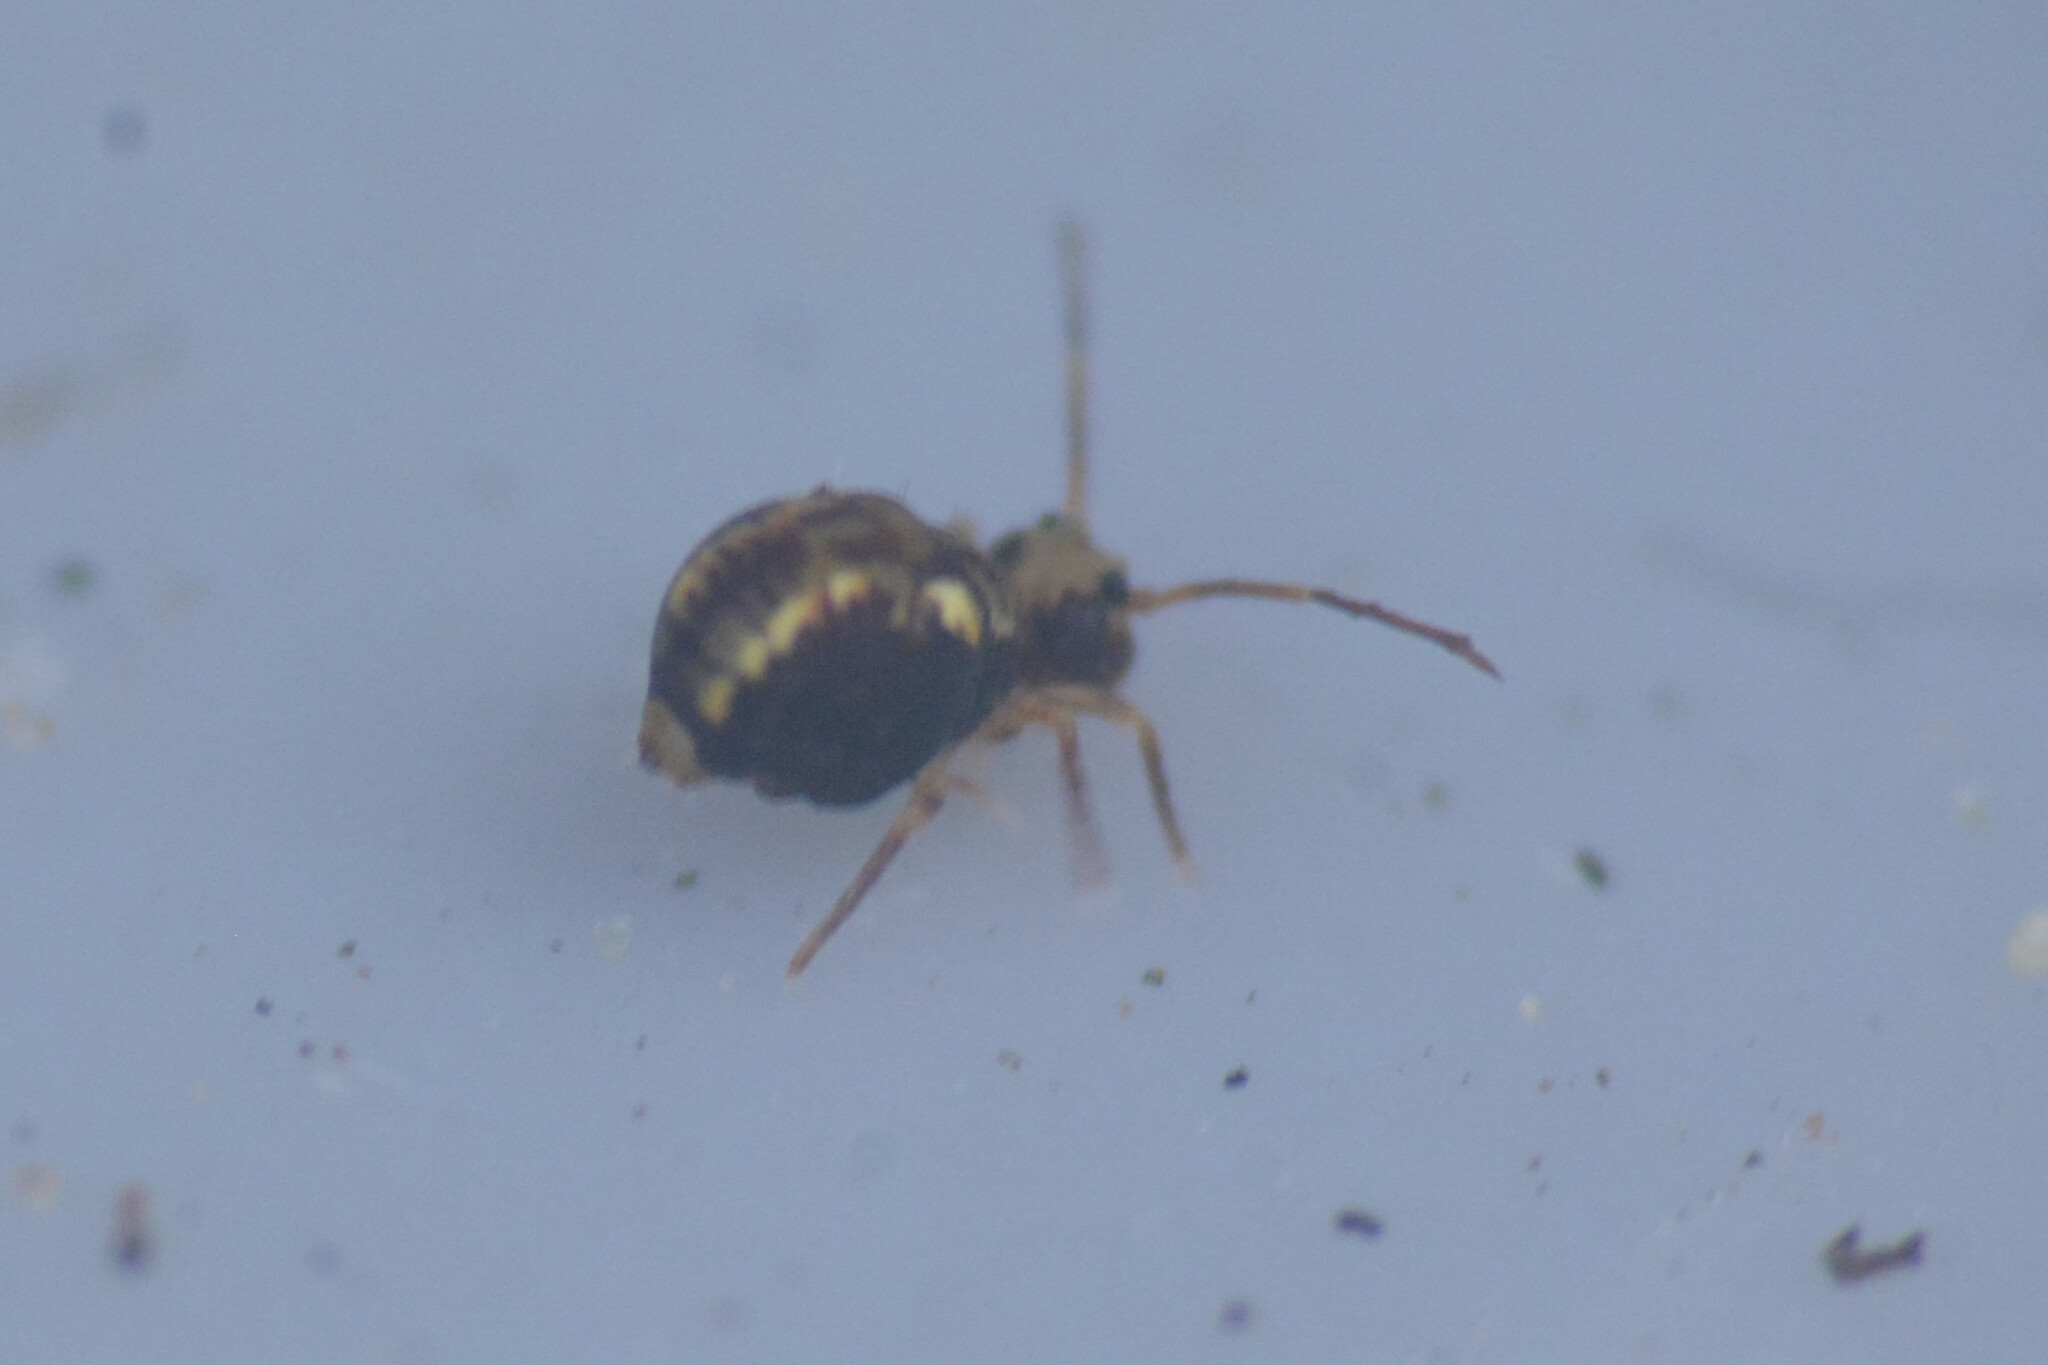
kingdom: Animalia
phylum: Arthropoda
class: Collembola
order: Symphypleona
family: Dicyrtomidae
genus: Dicyrtomina
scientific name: Dicyrtomina saundersi
